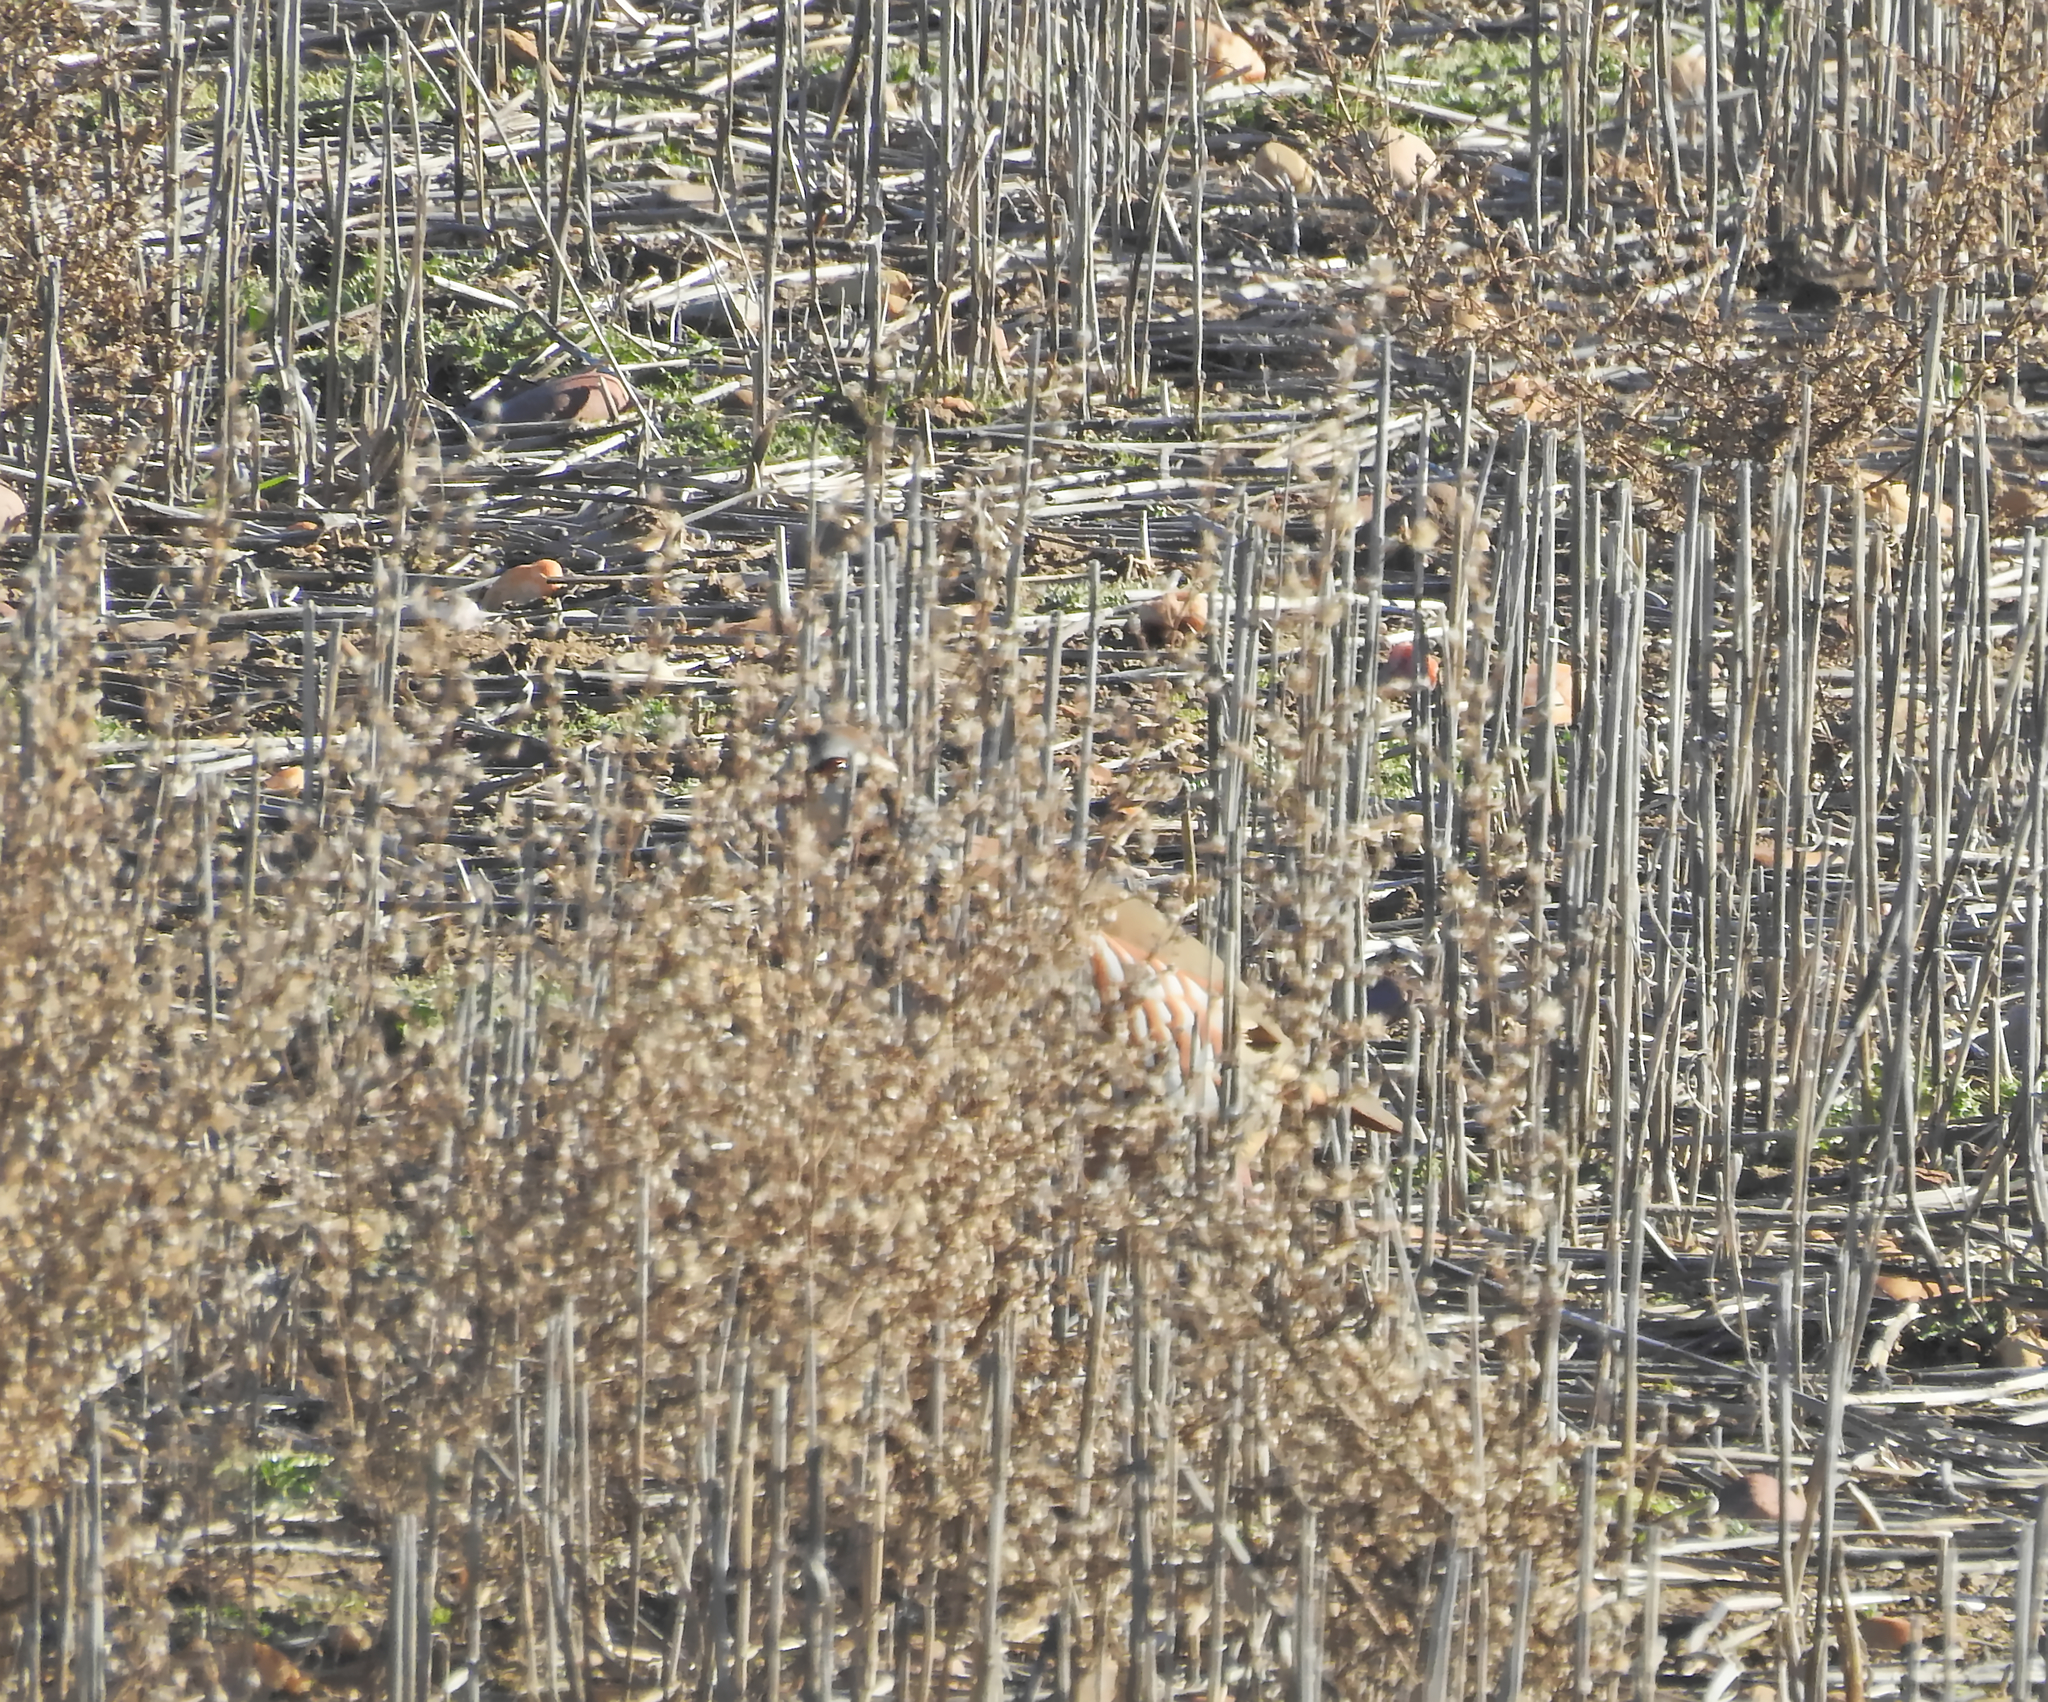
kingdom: Animalia
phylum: Chordata
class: Aves
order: Galliformes
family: Phasianidae
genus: Alectoris
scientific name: Alectoris rufa
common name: Red-legged partridge
